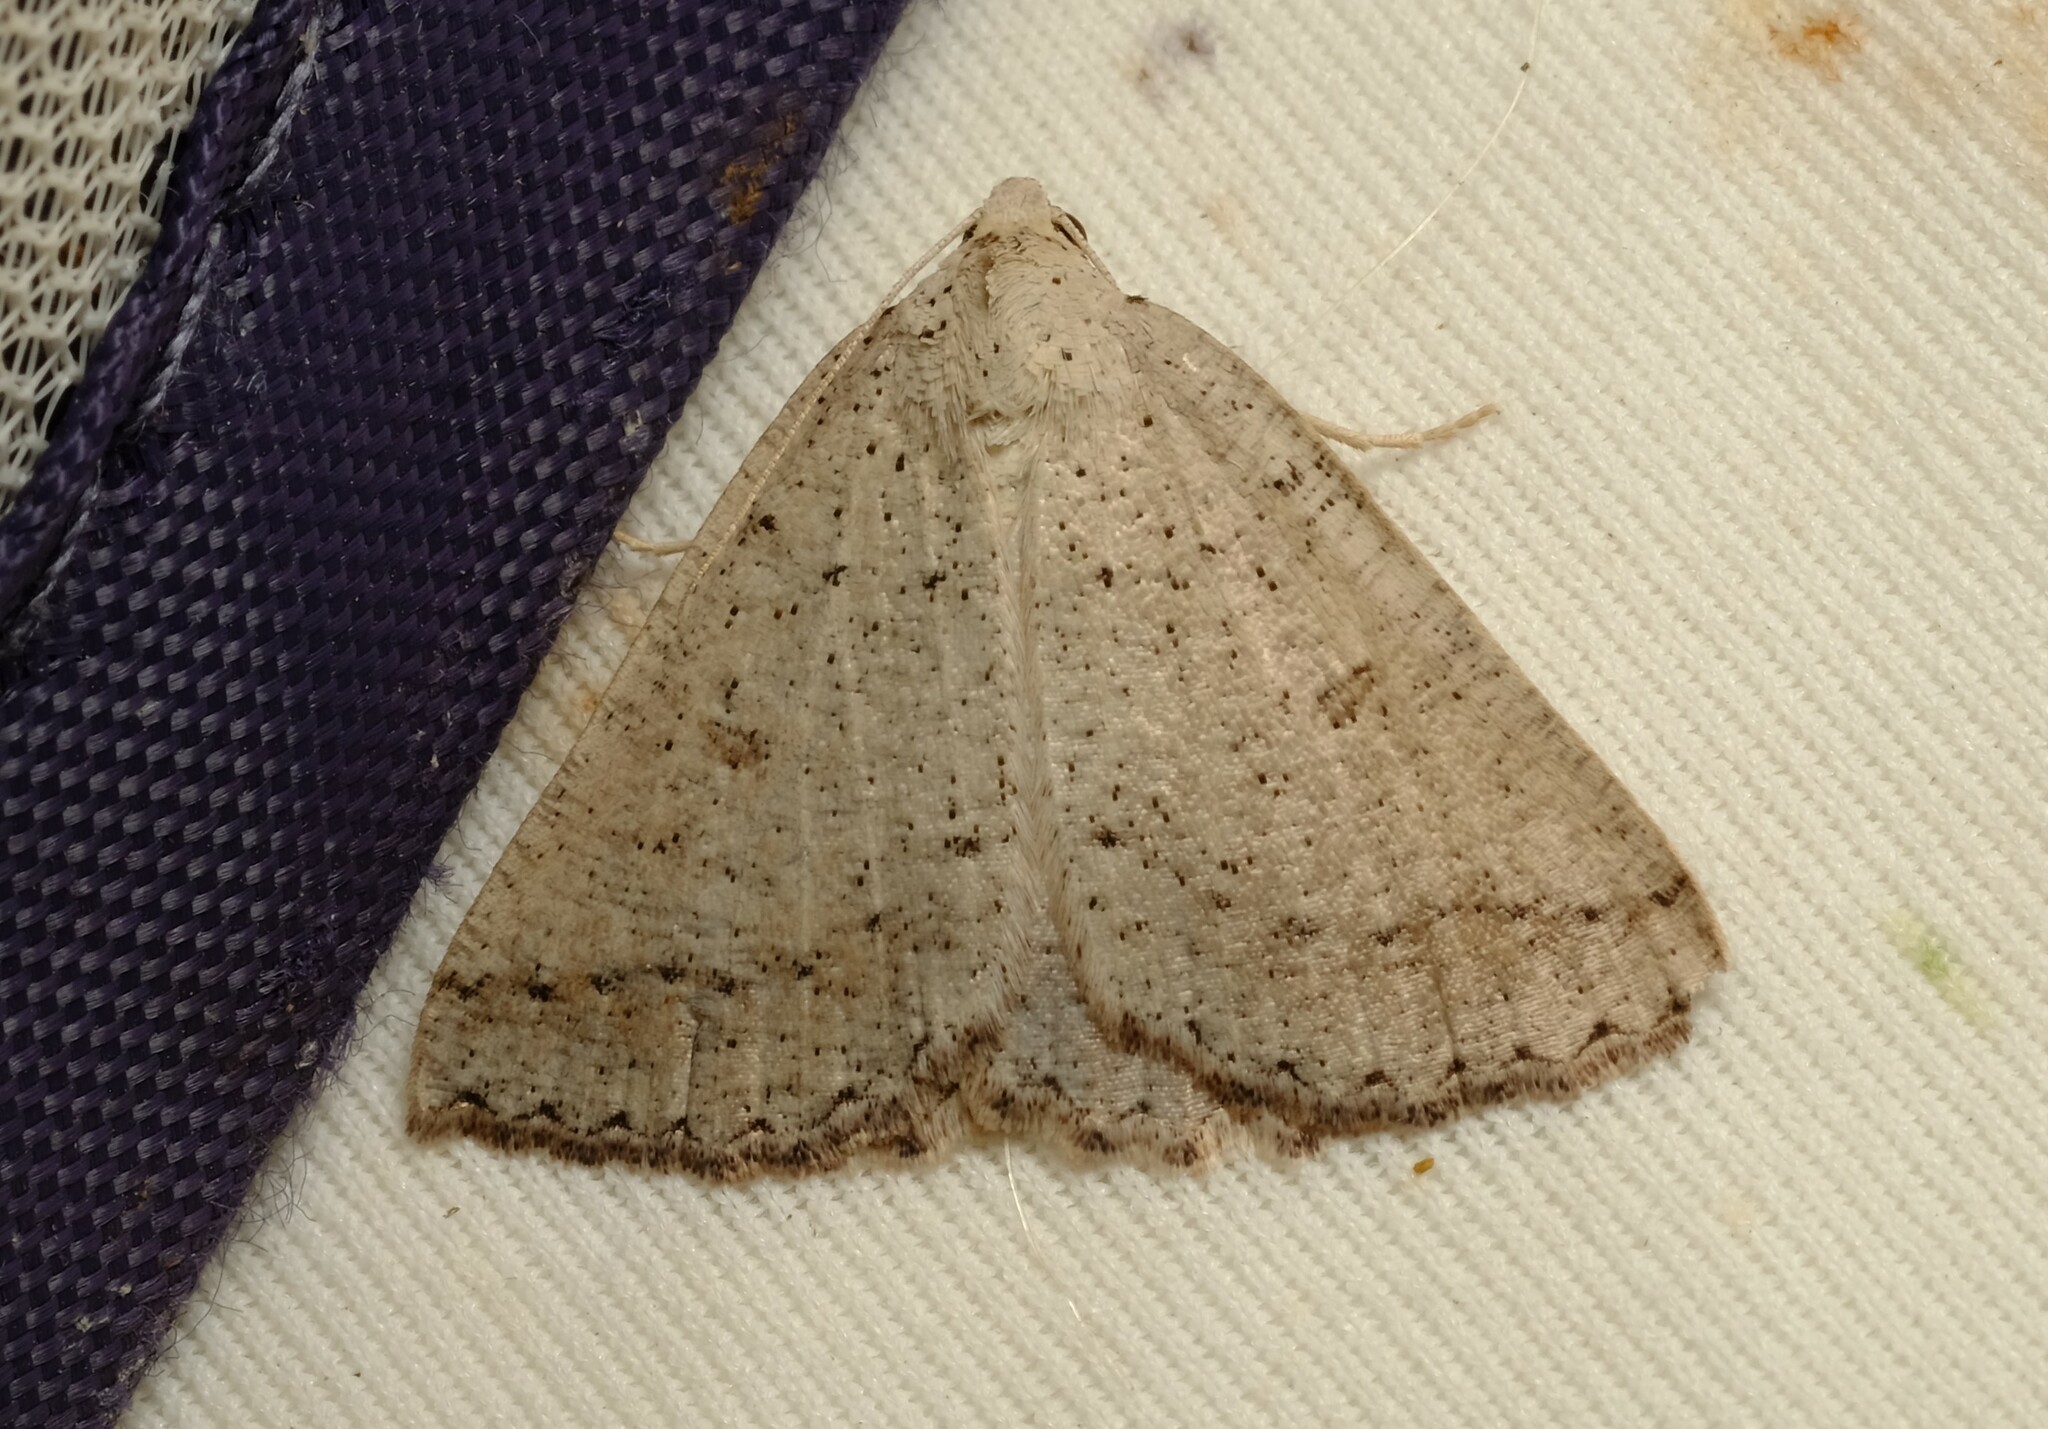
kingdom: Animalia
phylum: Arthropoda
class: Insecta
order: Lepidoptera
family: Geometridae
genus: Amelora
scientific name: Amelora zophopasta
